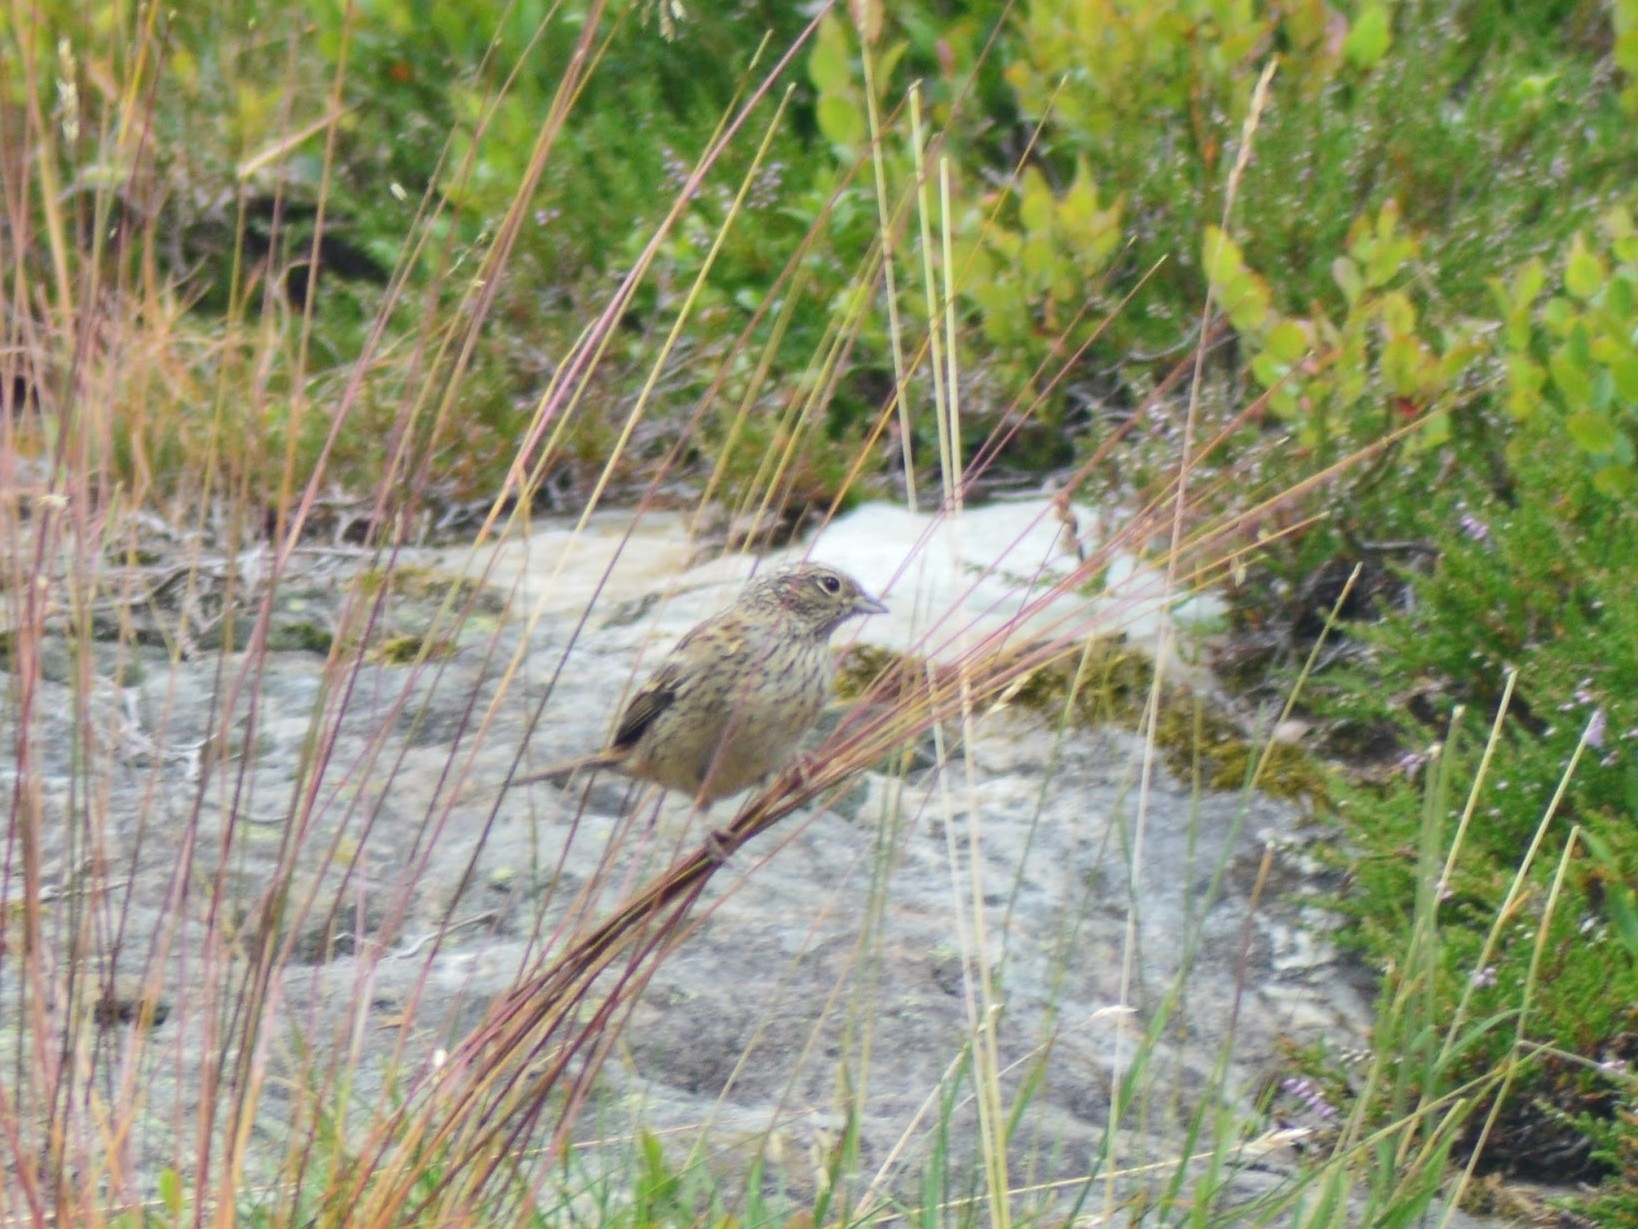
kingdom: Animalia
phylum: Chordata
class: Aves
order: Passeriformes
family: Emberizidae
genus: Emberiza
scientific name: Emberiza cia
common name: Rock bunting
